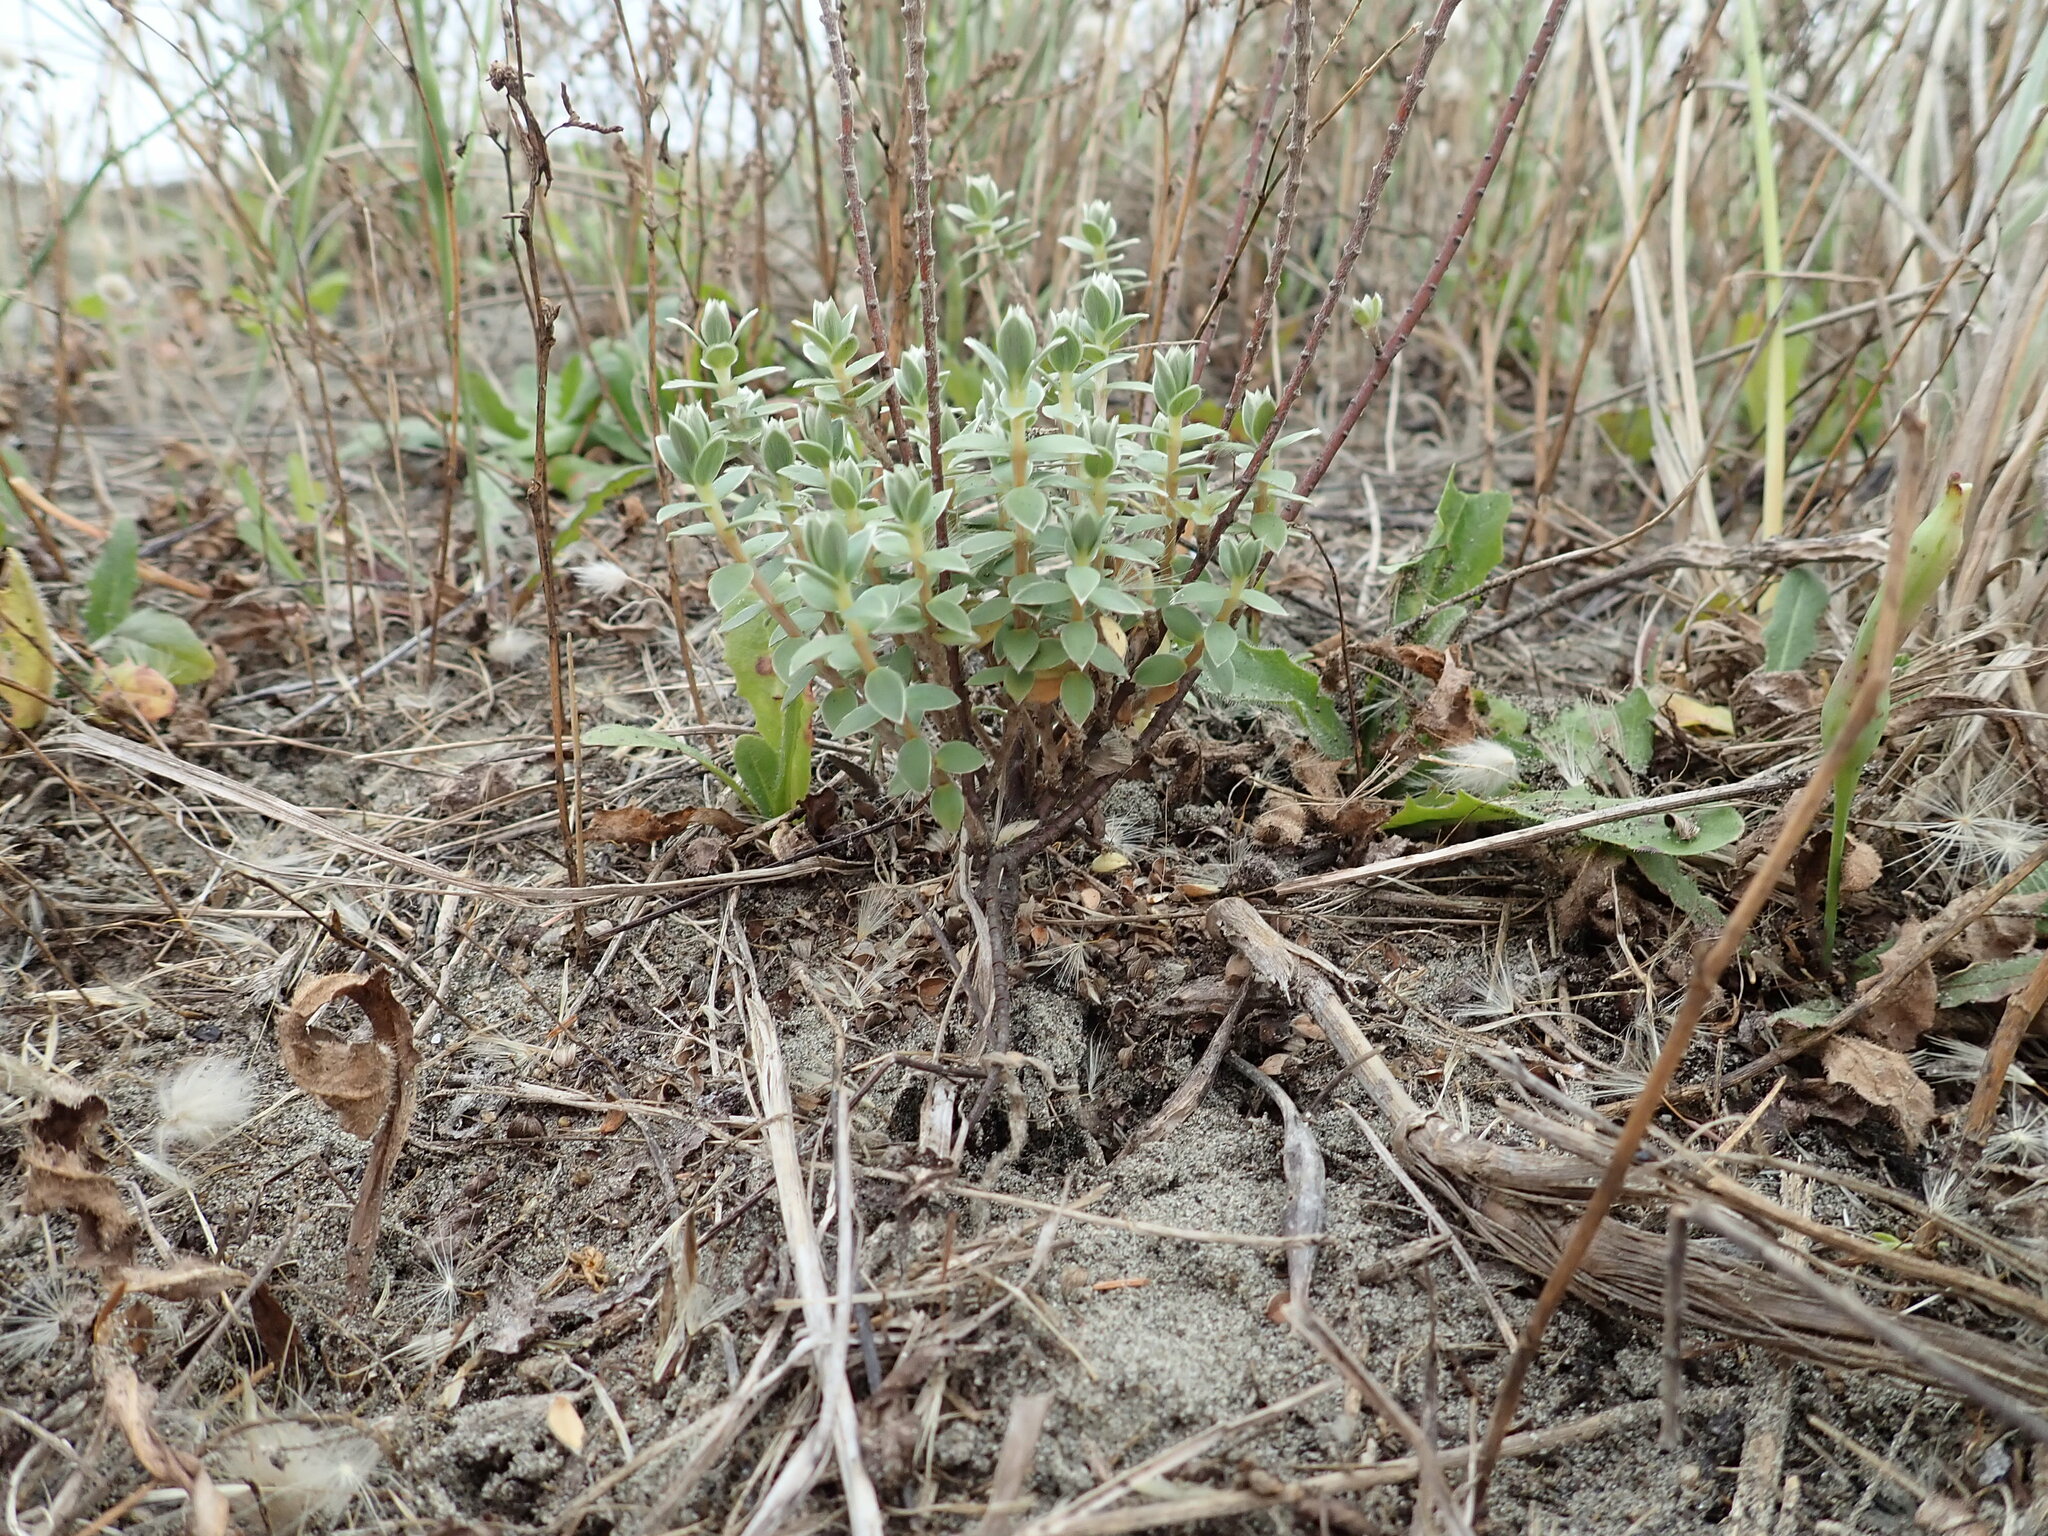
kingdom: Plantae
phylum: Tracheophyta
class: Magnoliopsida
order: Malvales
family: Thymelaeaceae
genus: Pimelea
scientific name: Pimelea villosa
